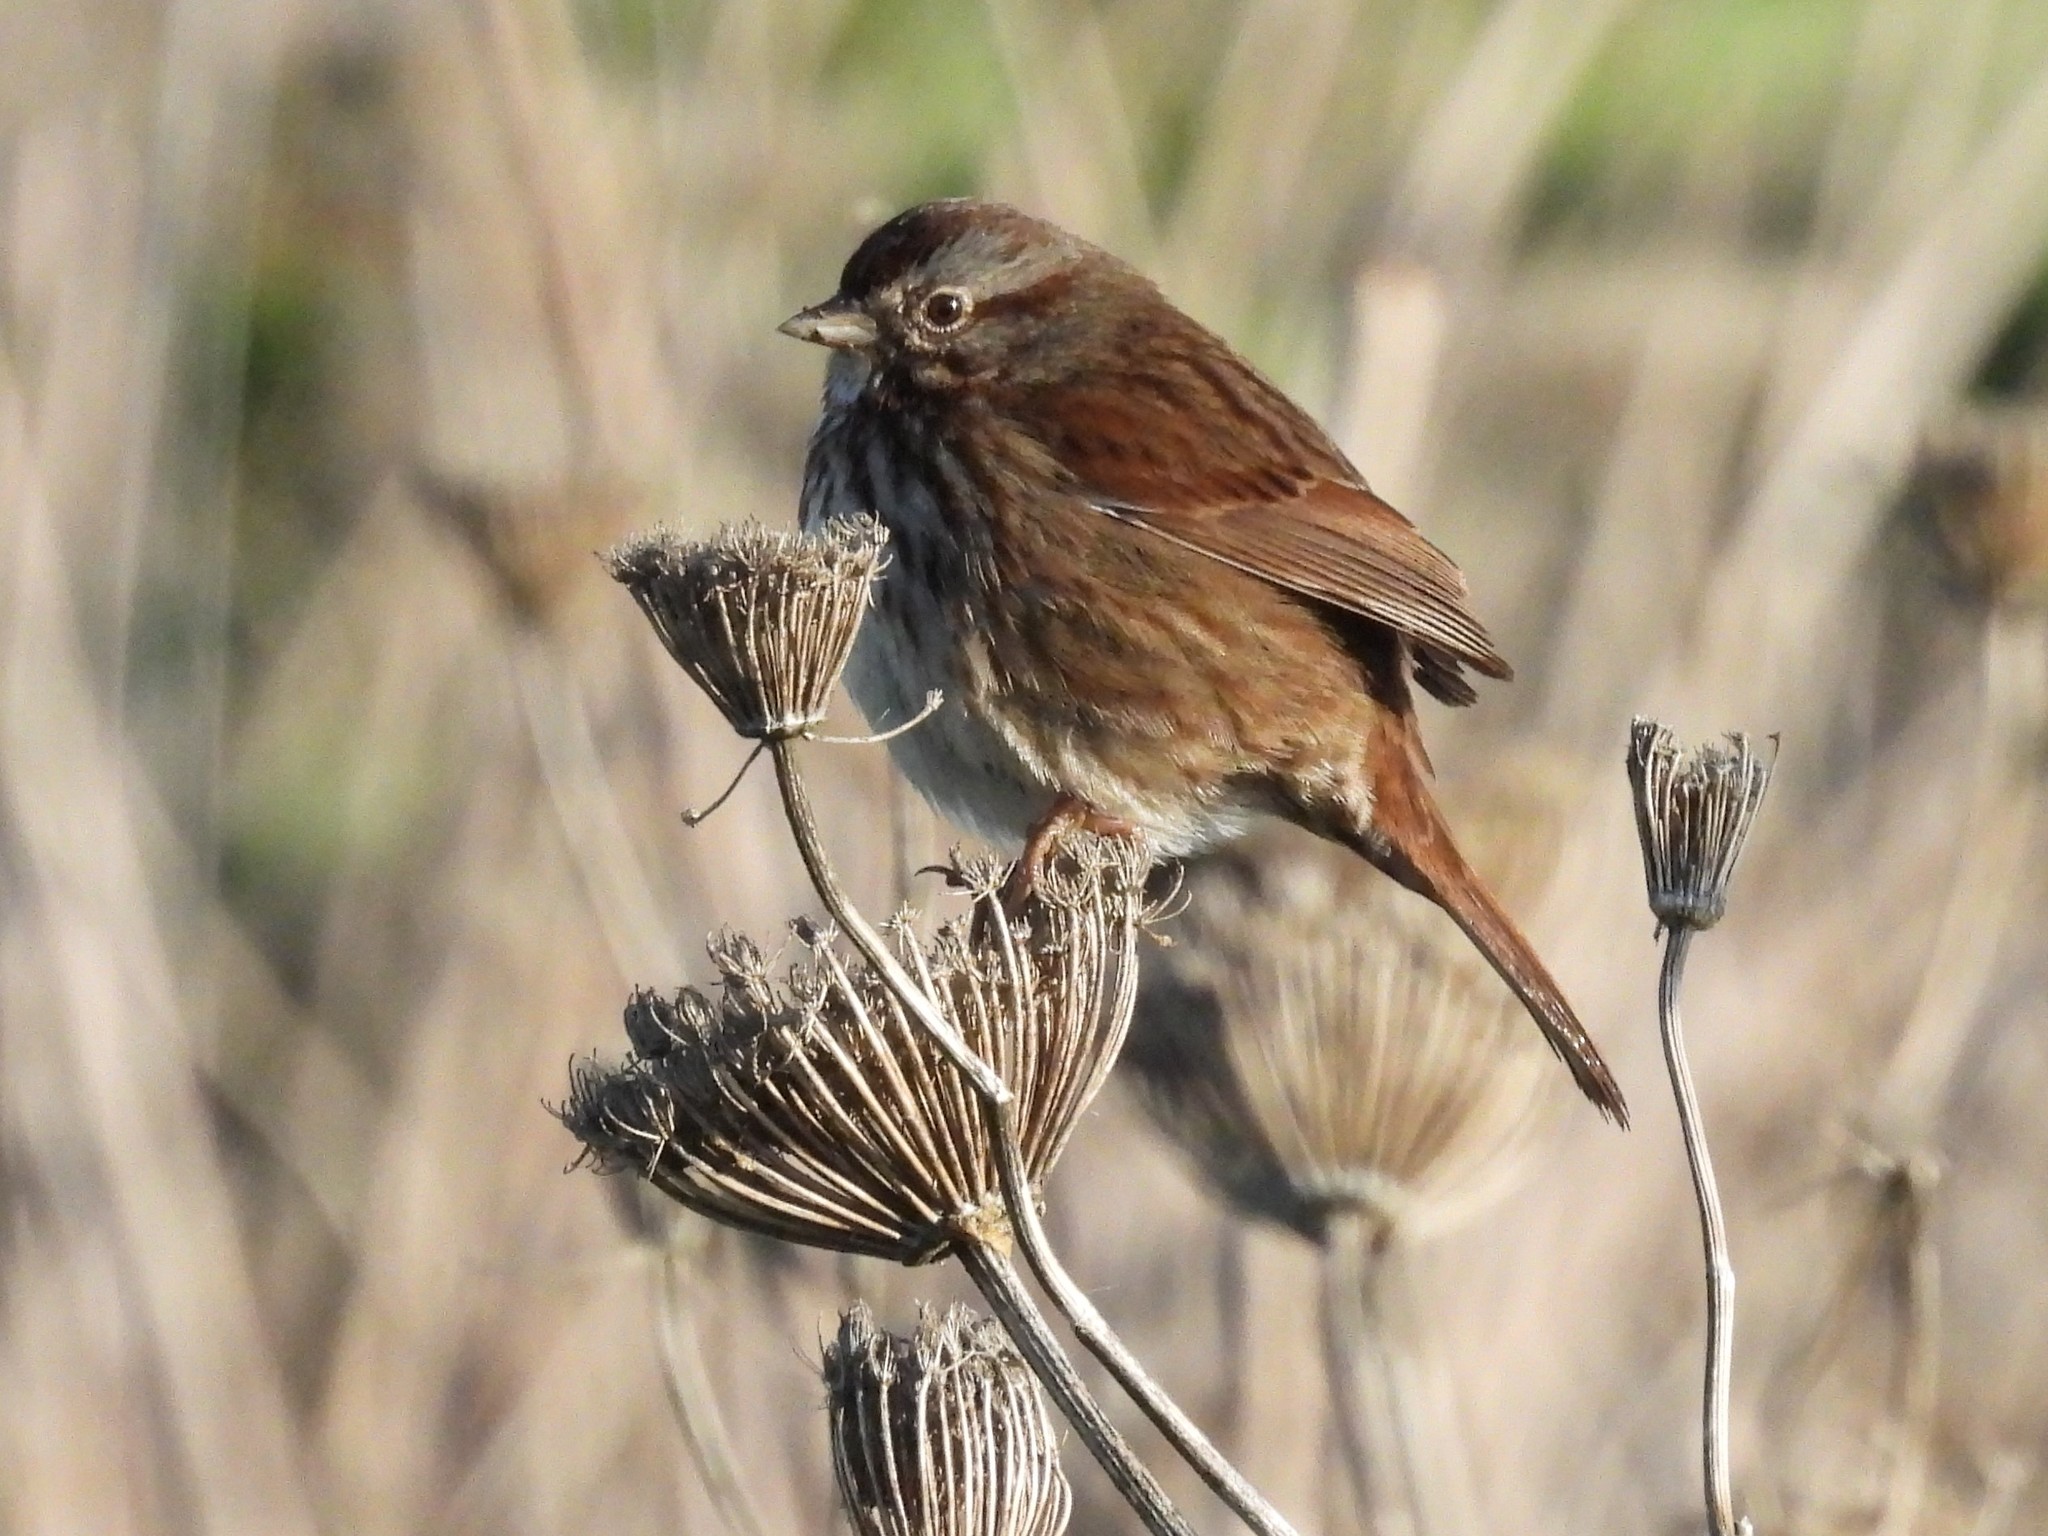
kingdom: Animalia
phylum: Chordata
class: Aves
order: Passeriformes
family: Passerellidae
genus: Melospiza
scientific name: Melospiza melodia
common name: Song sparrow
